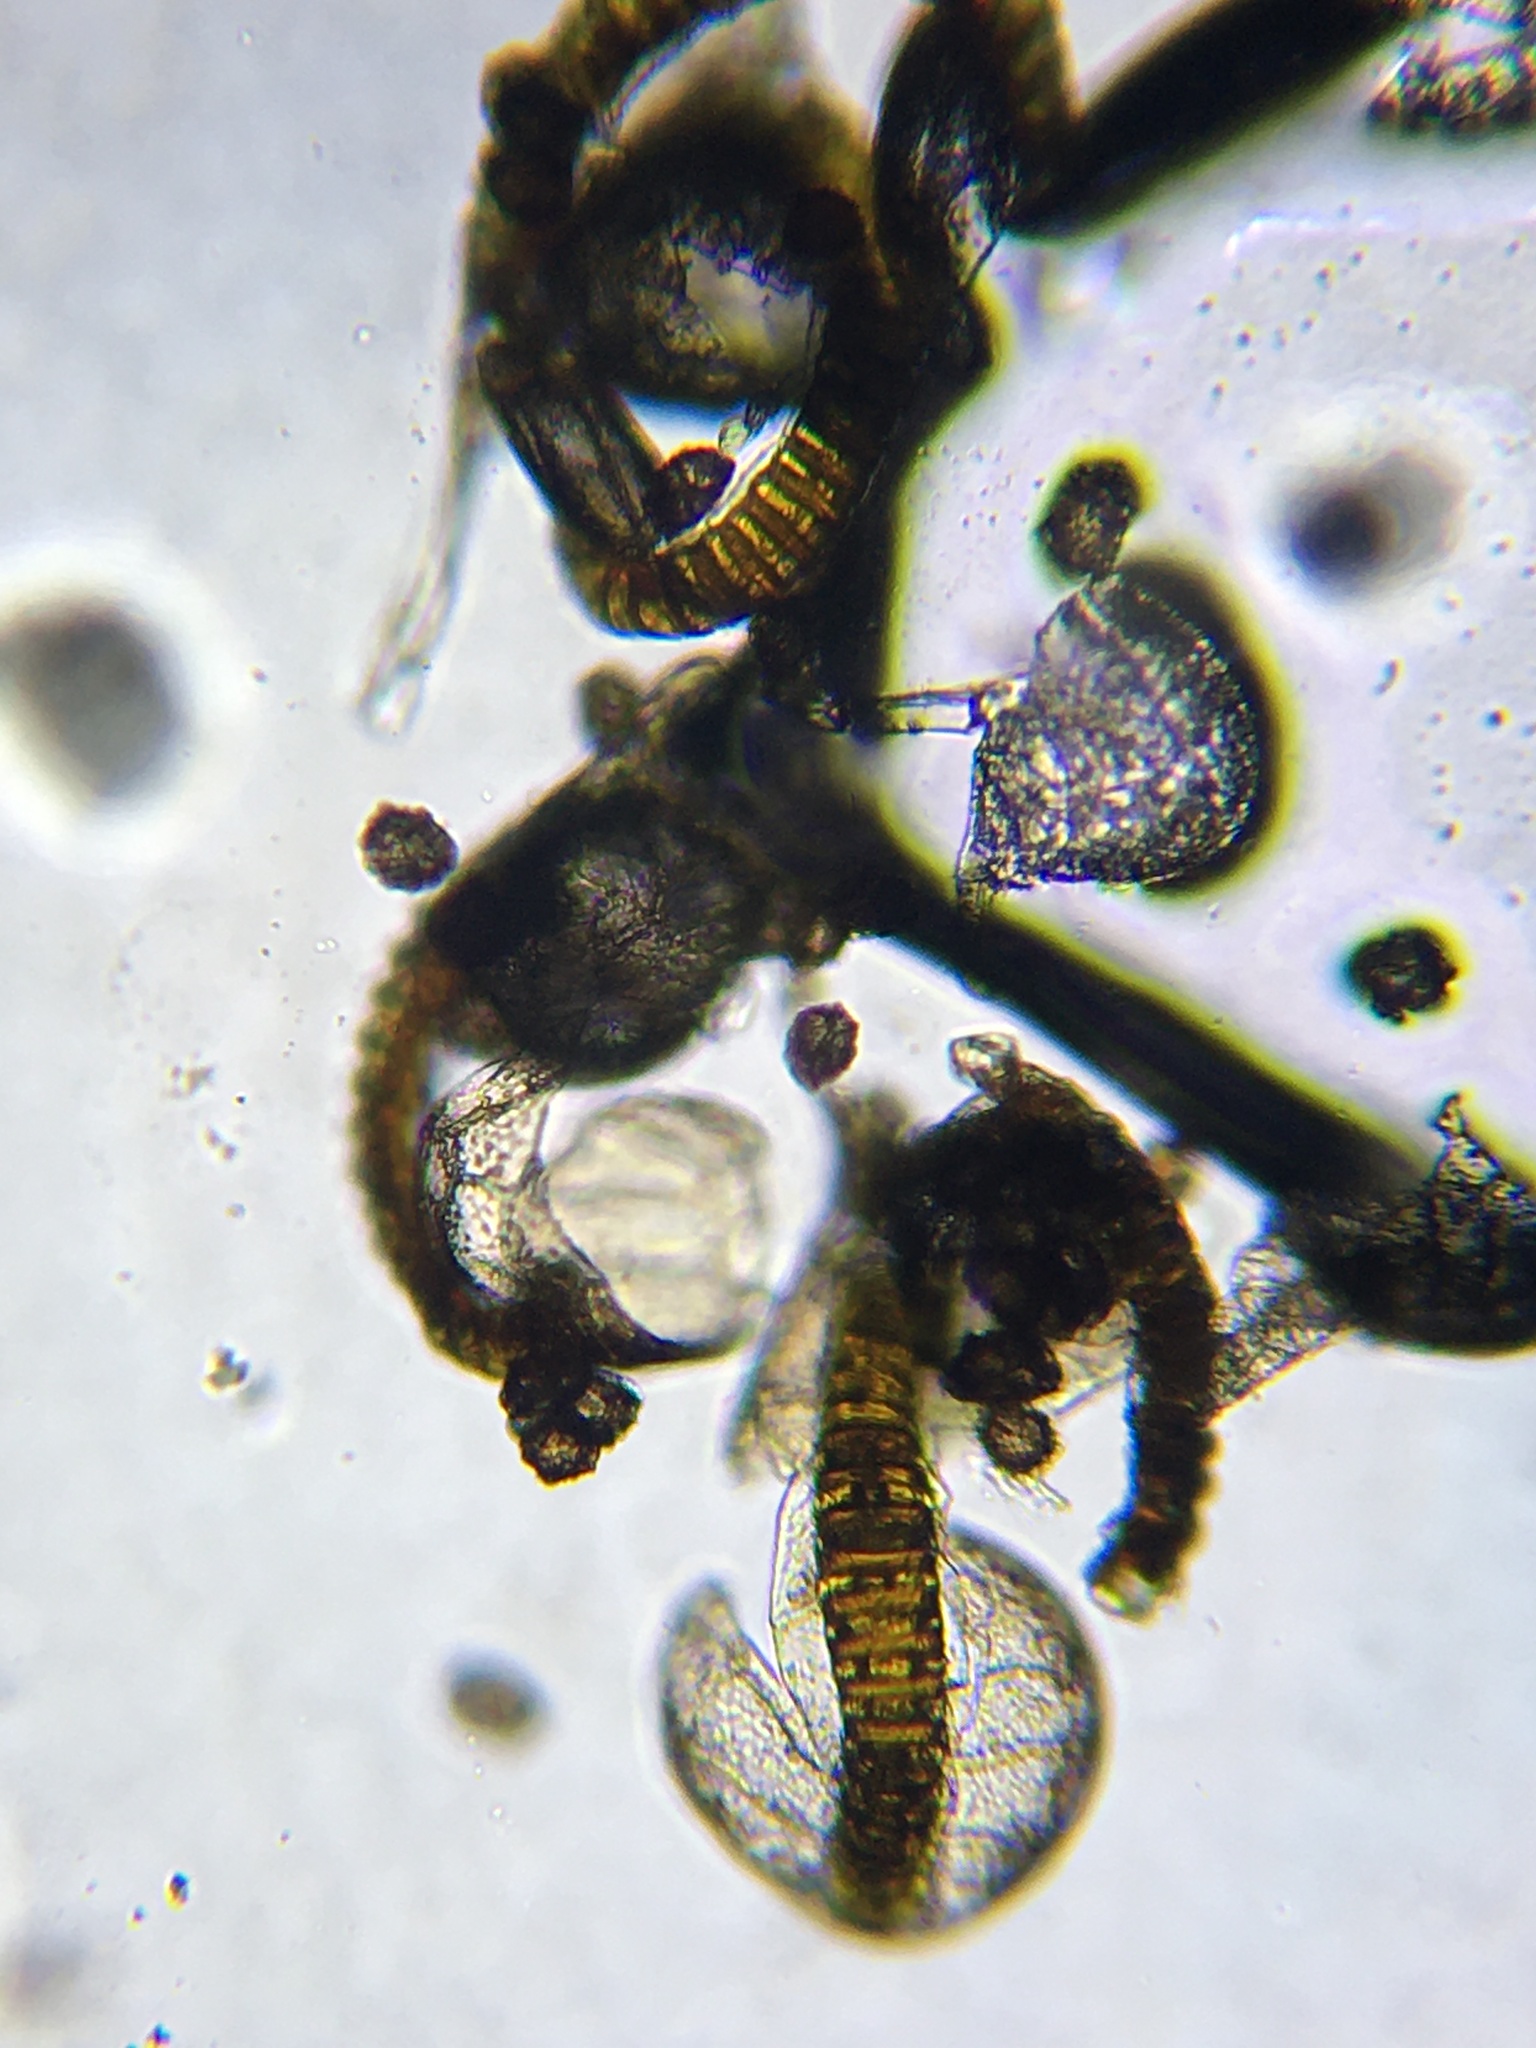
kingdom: Plantae
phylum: Tracheophyta
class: Polypodiopsida
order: Polypodiales
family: Aspleniaceae
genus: Asplenium
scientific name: Asplenium trichomanes
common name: Maidenhair spleenwort
